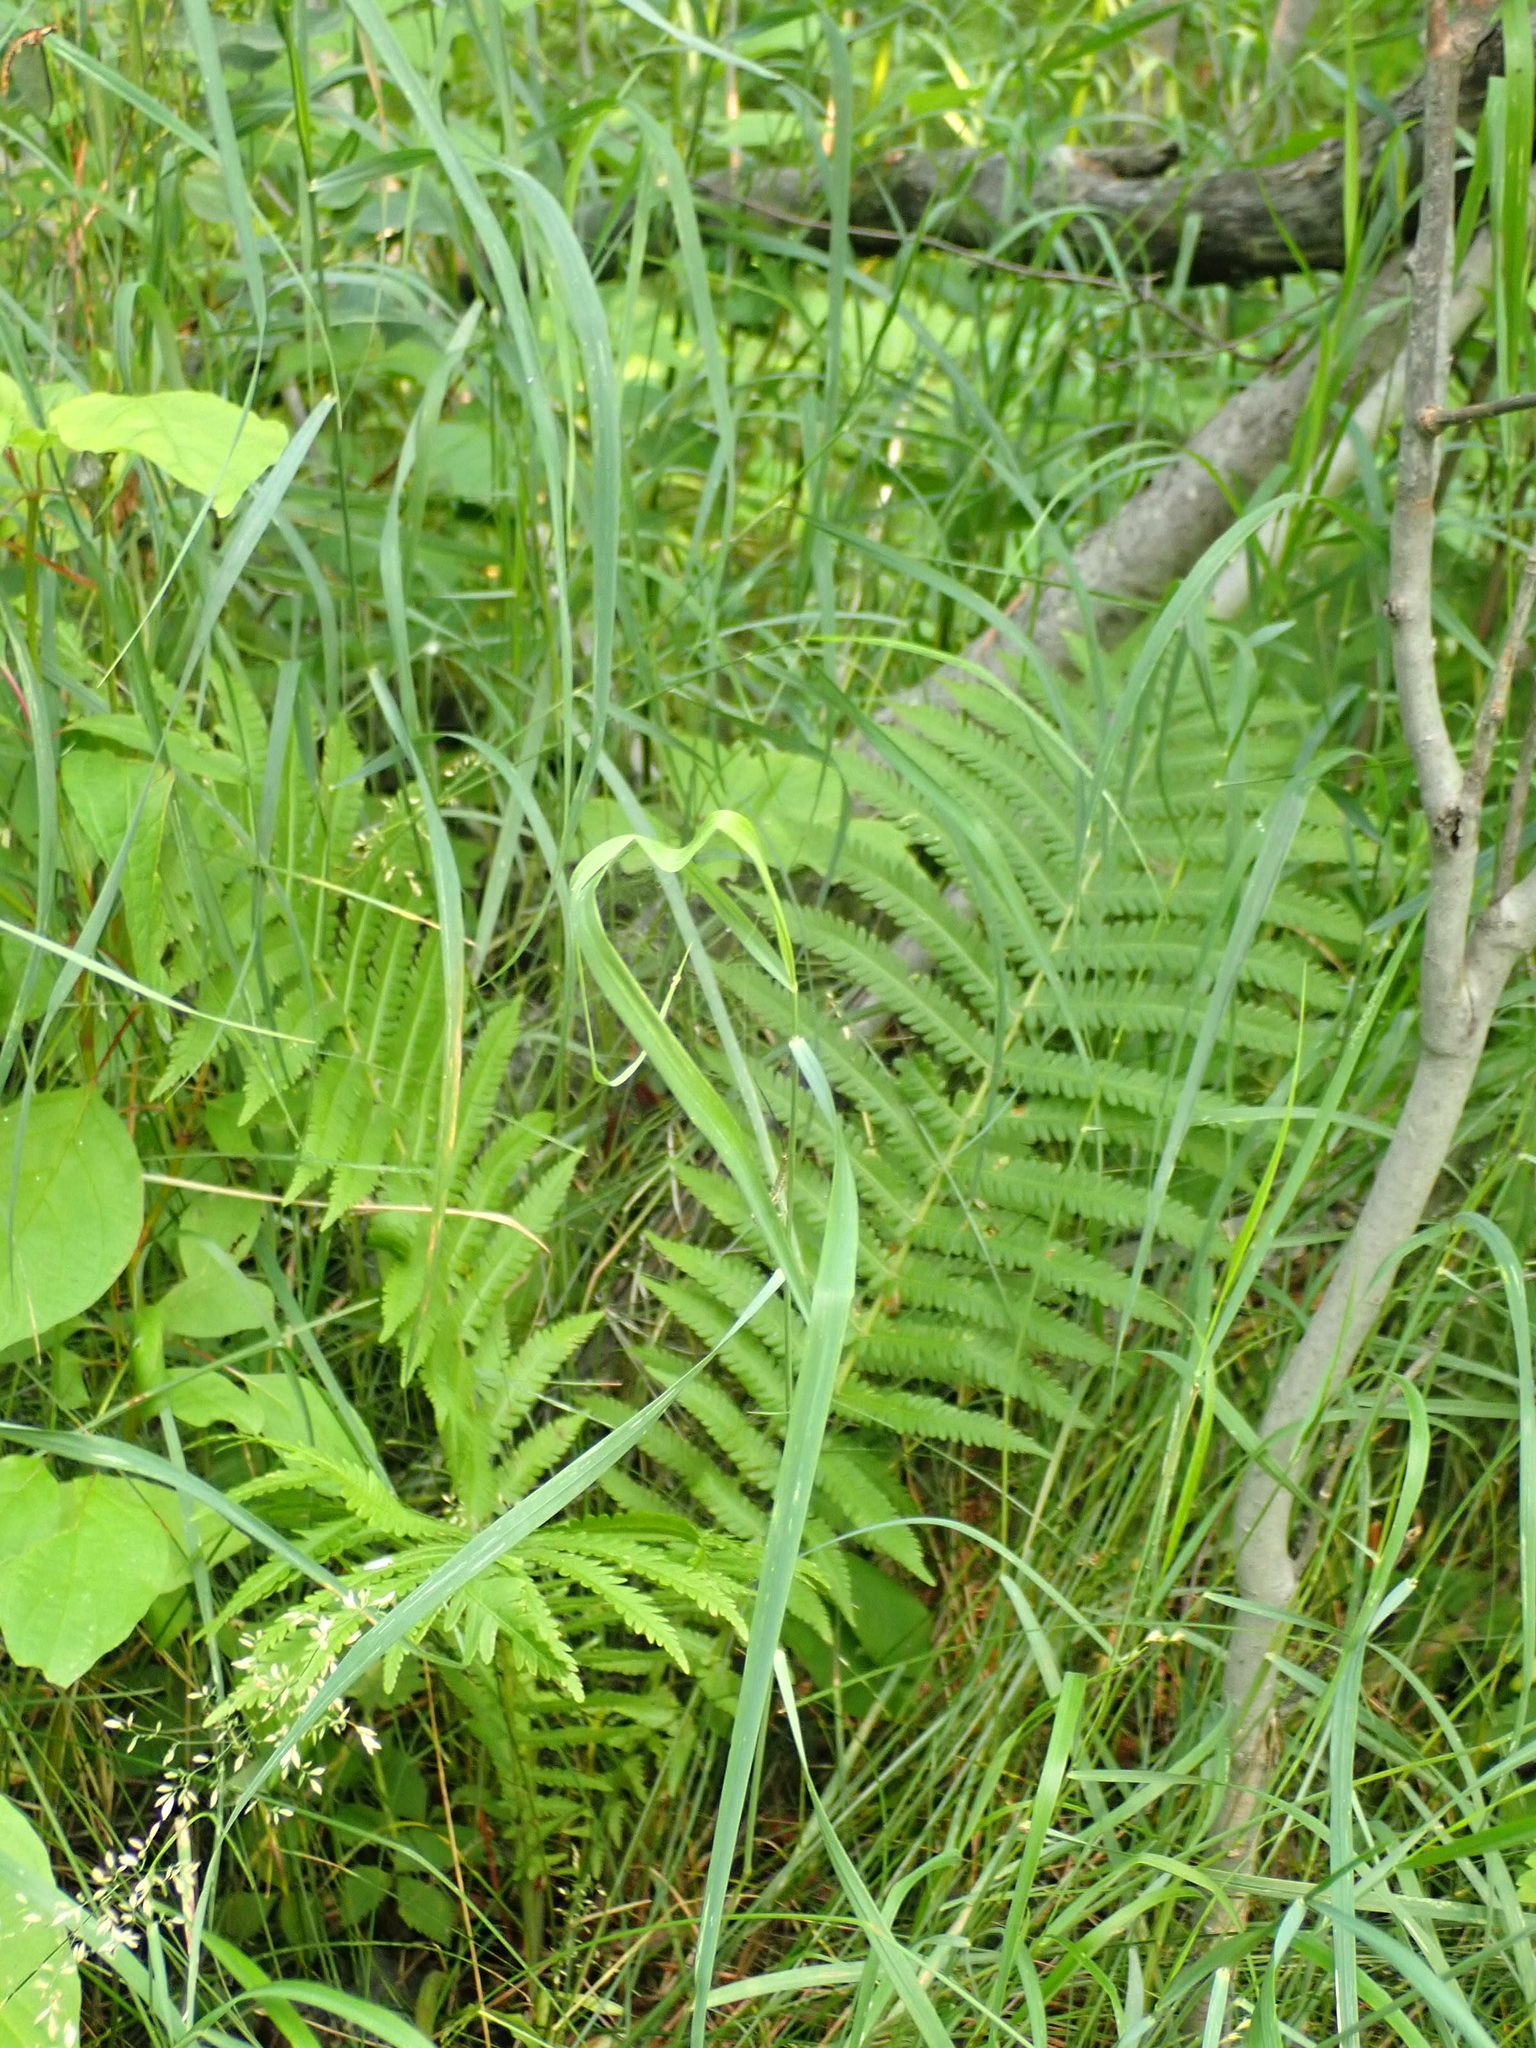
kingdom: Plantae
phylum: Tracheophyta
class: Polypodiopsida
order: Polypodiales
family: Onocleaceae
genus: Matteuccia
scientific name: Matteuccia struthiopteris
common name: Ostrich fern
